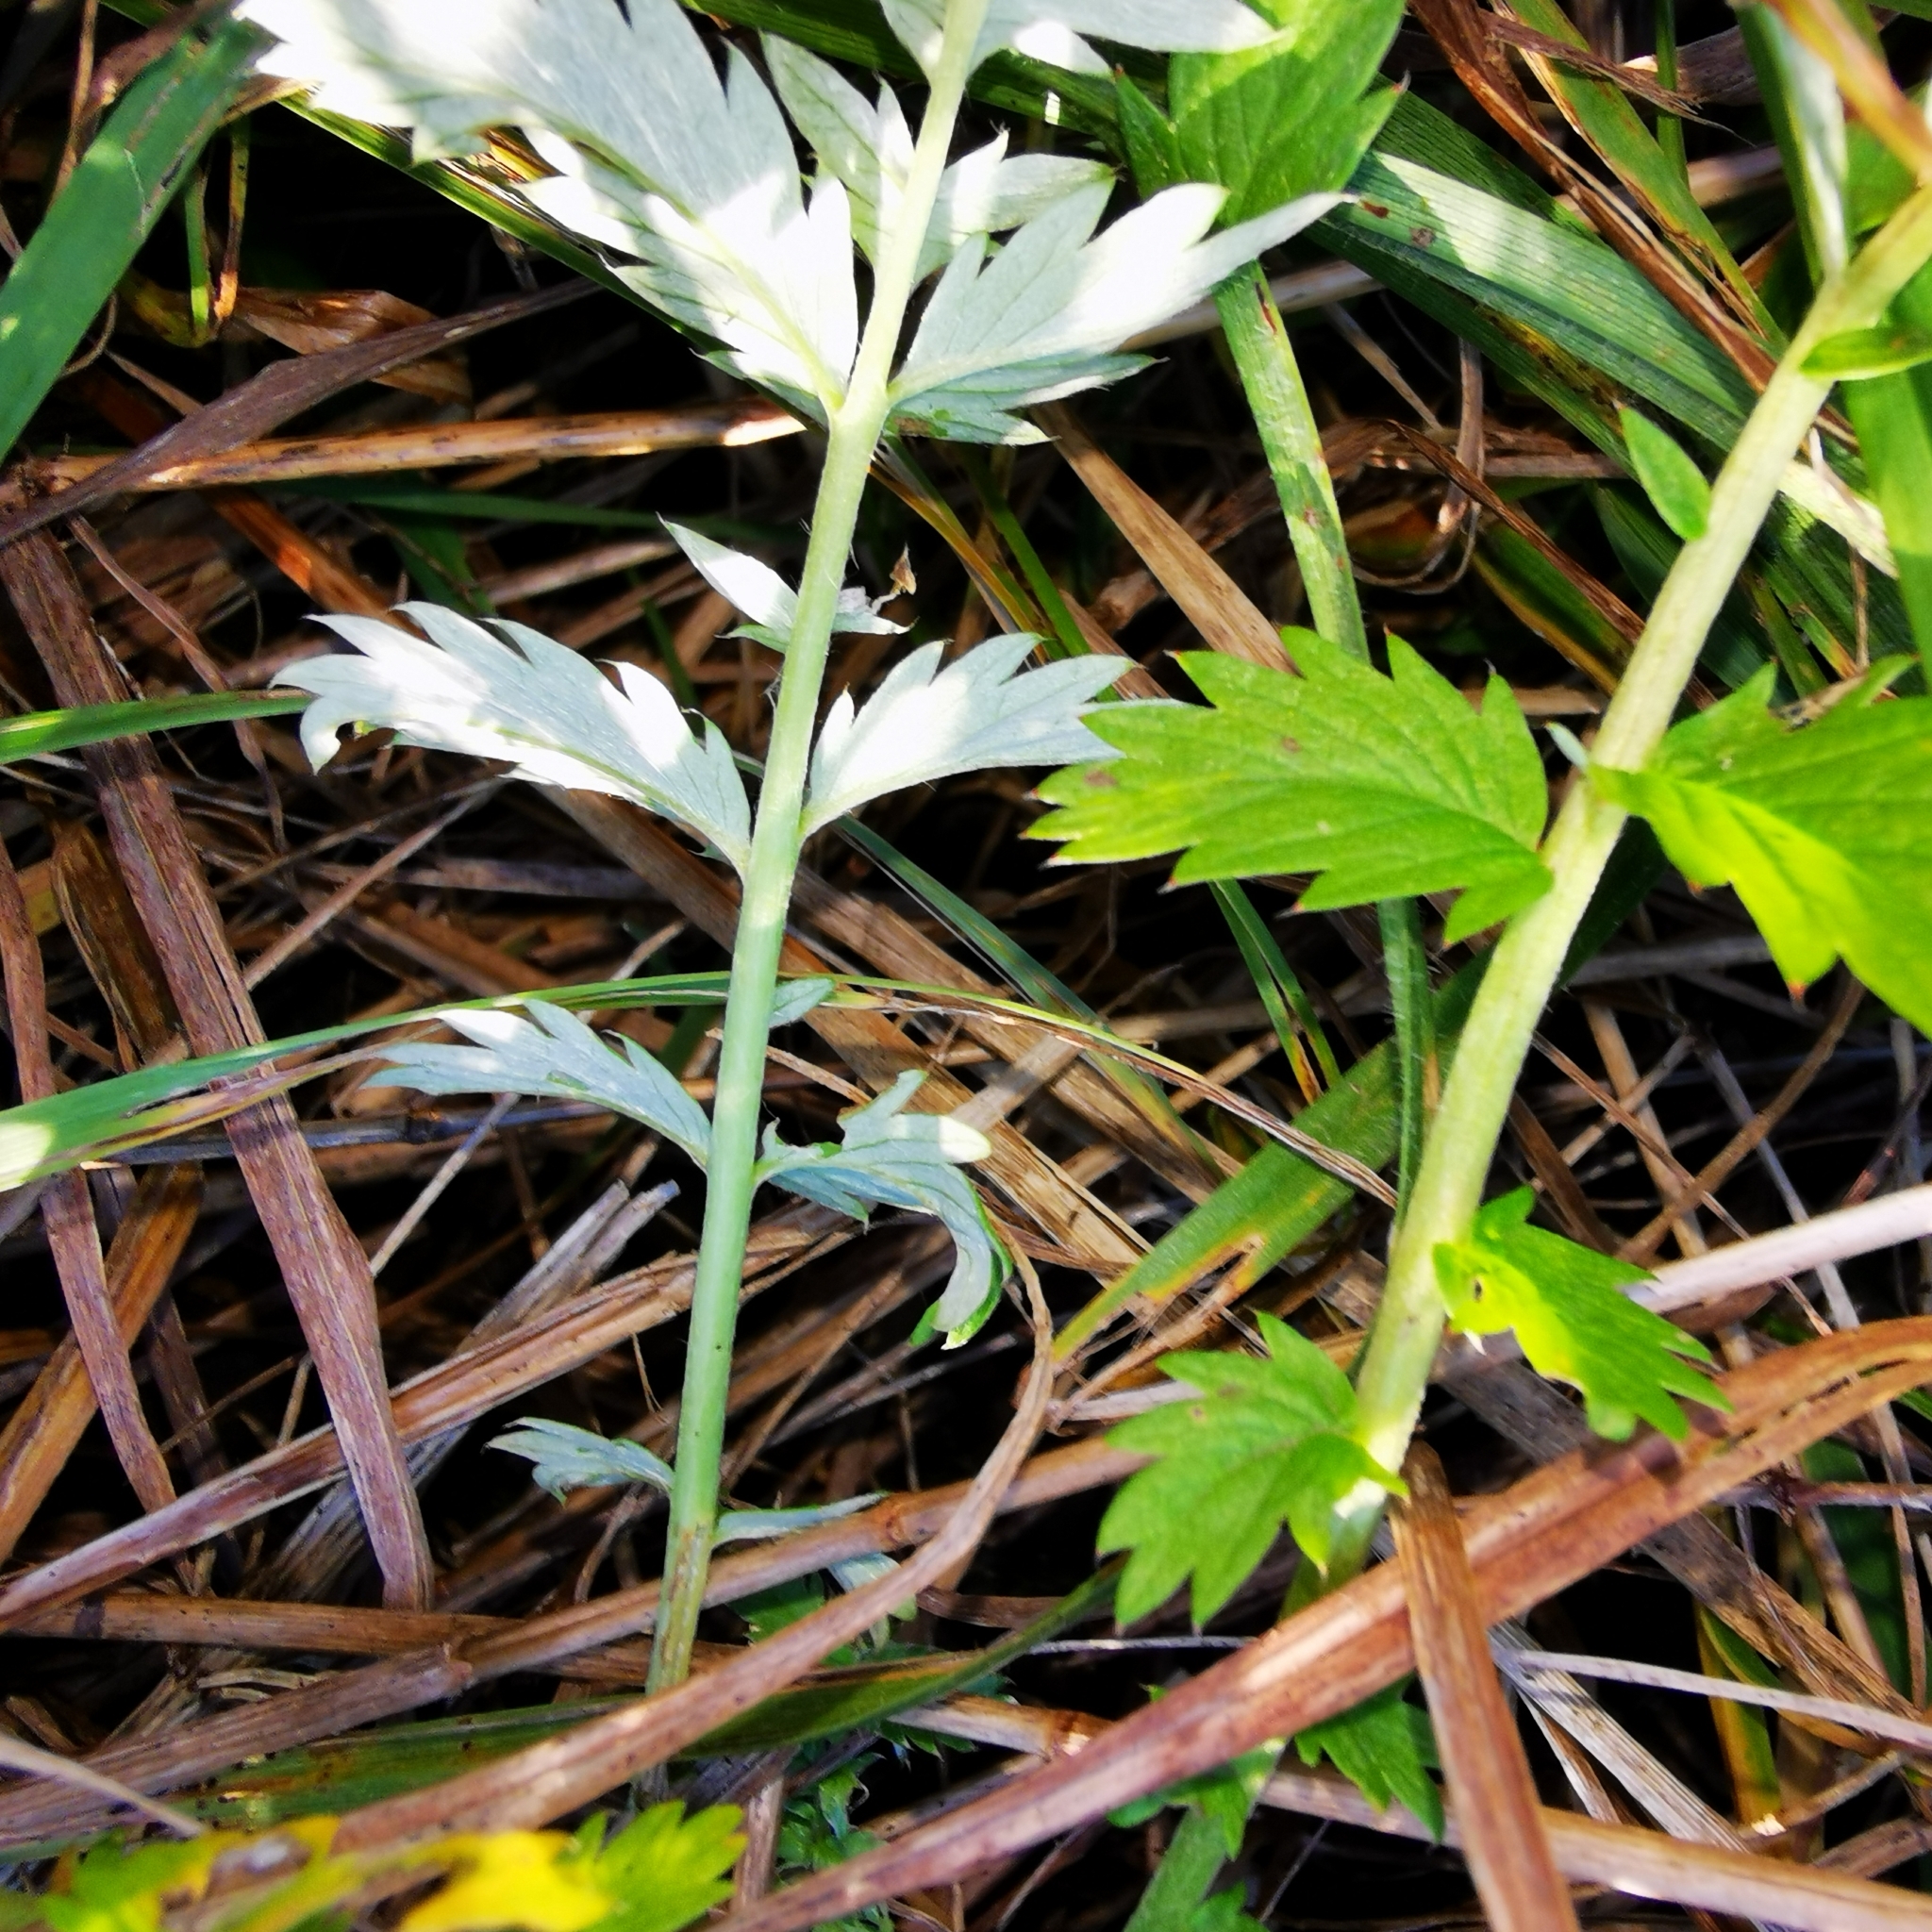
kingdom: Plantae
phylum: Tracheophyta
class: Magnoliopsida
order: Rosales
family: Rosaceae
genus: Argentina
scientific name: Argentina anserina
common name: Common silverweed
